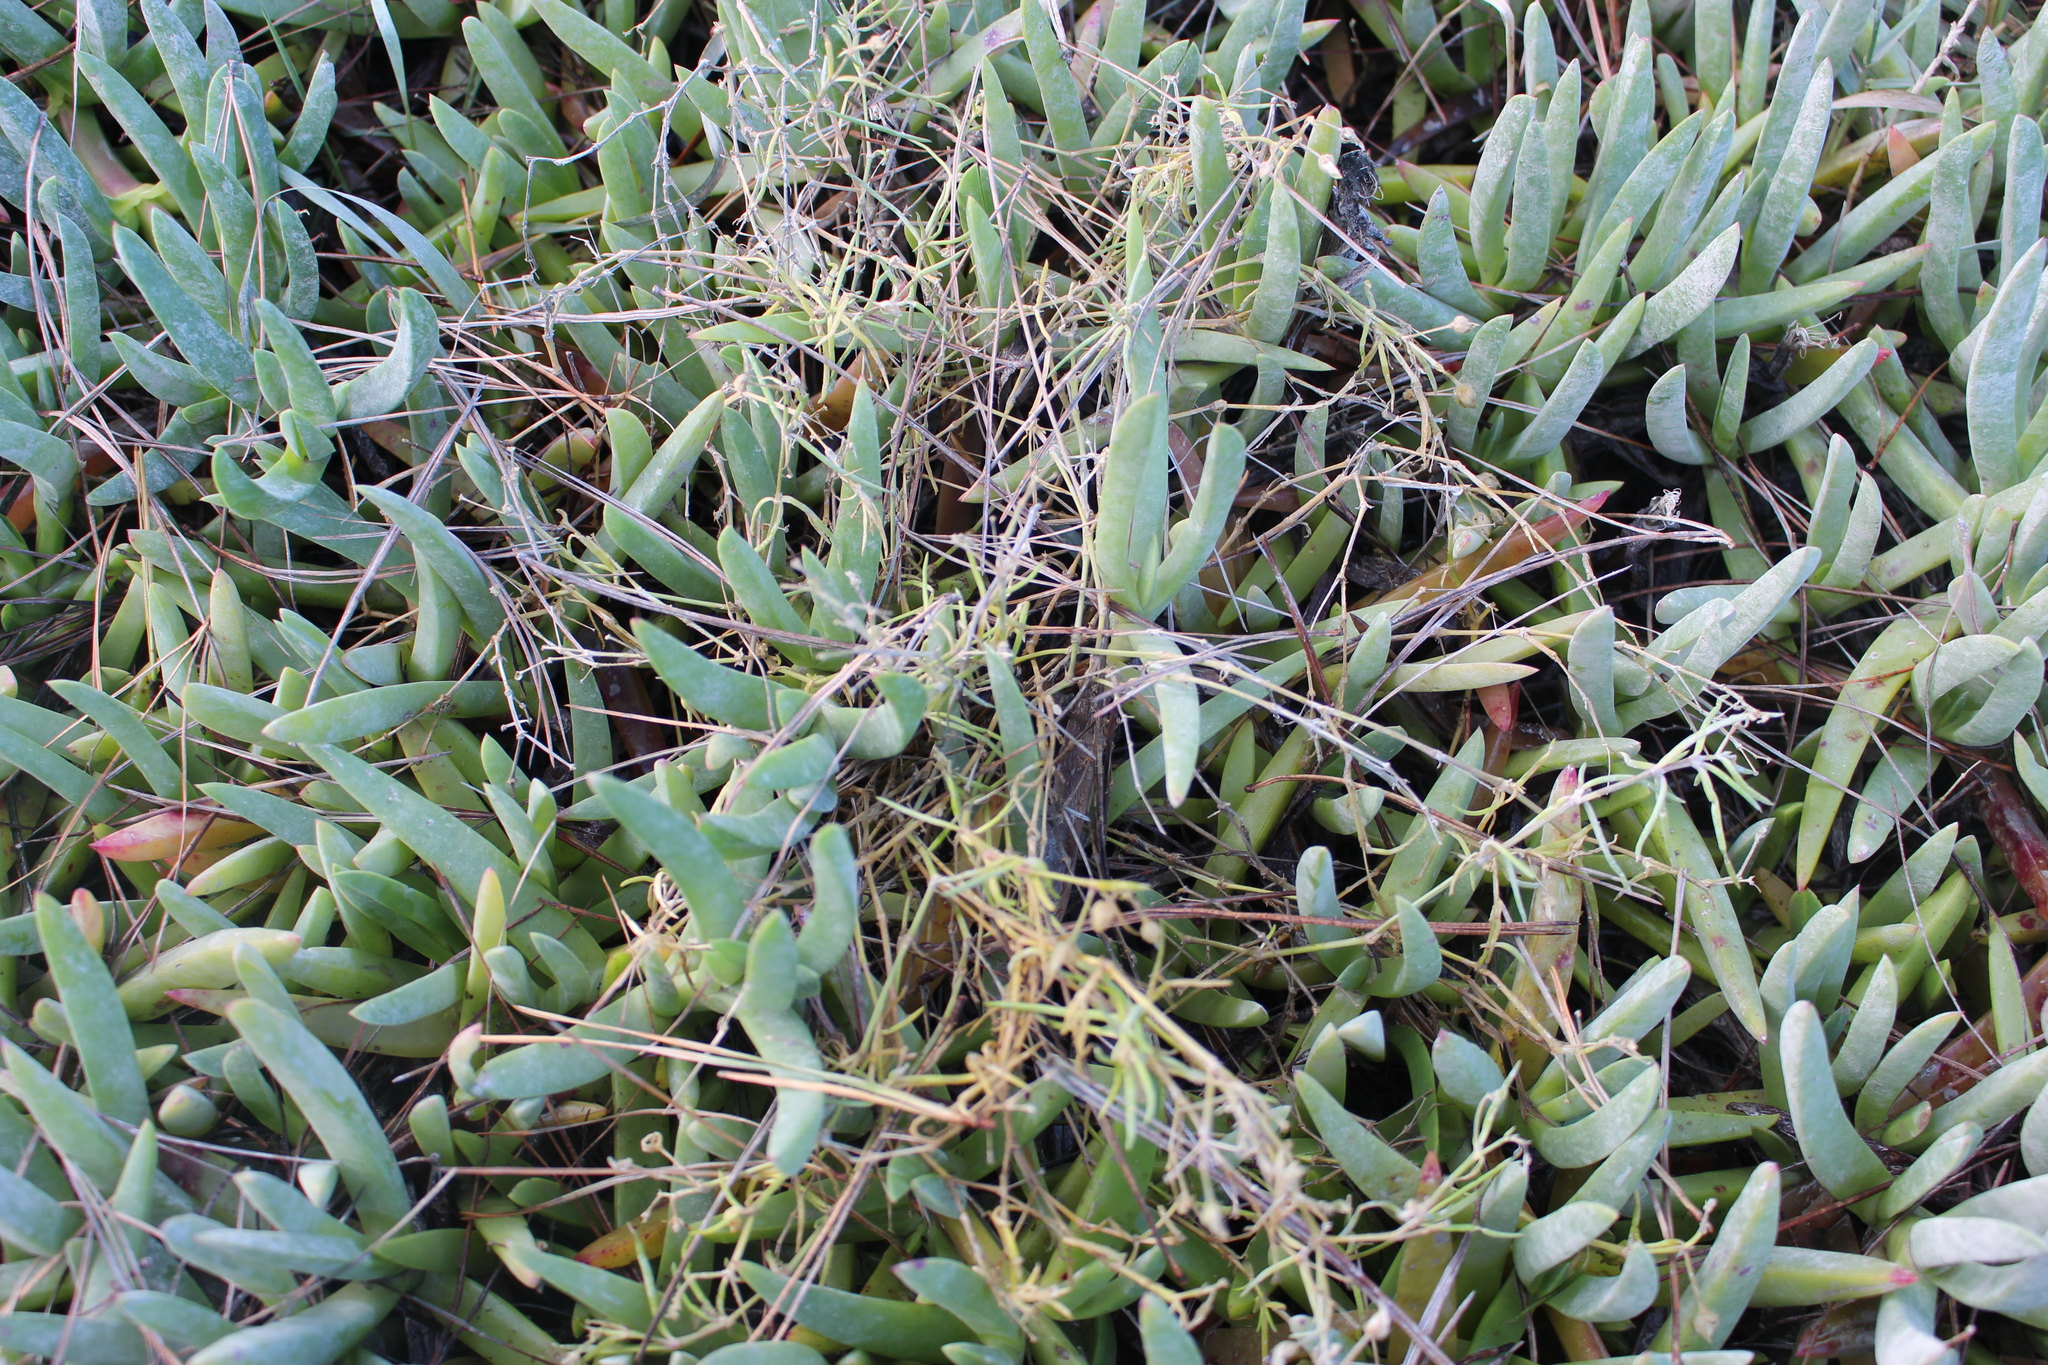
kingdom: Plantae
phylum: Tracheophyta
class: Magnoliopsida
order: Caryophyllales
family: Caryophyllaceae
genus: Spergularia
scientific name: Spergularia media
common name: Greater sea-spurrey
